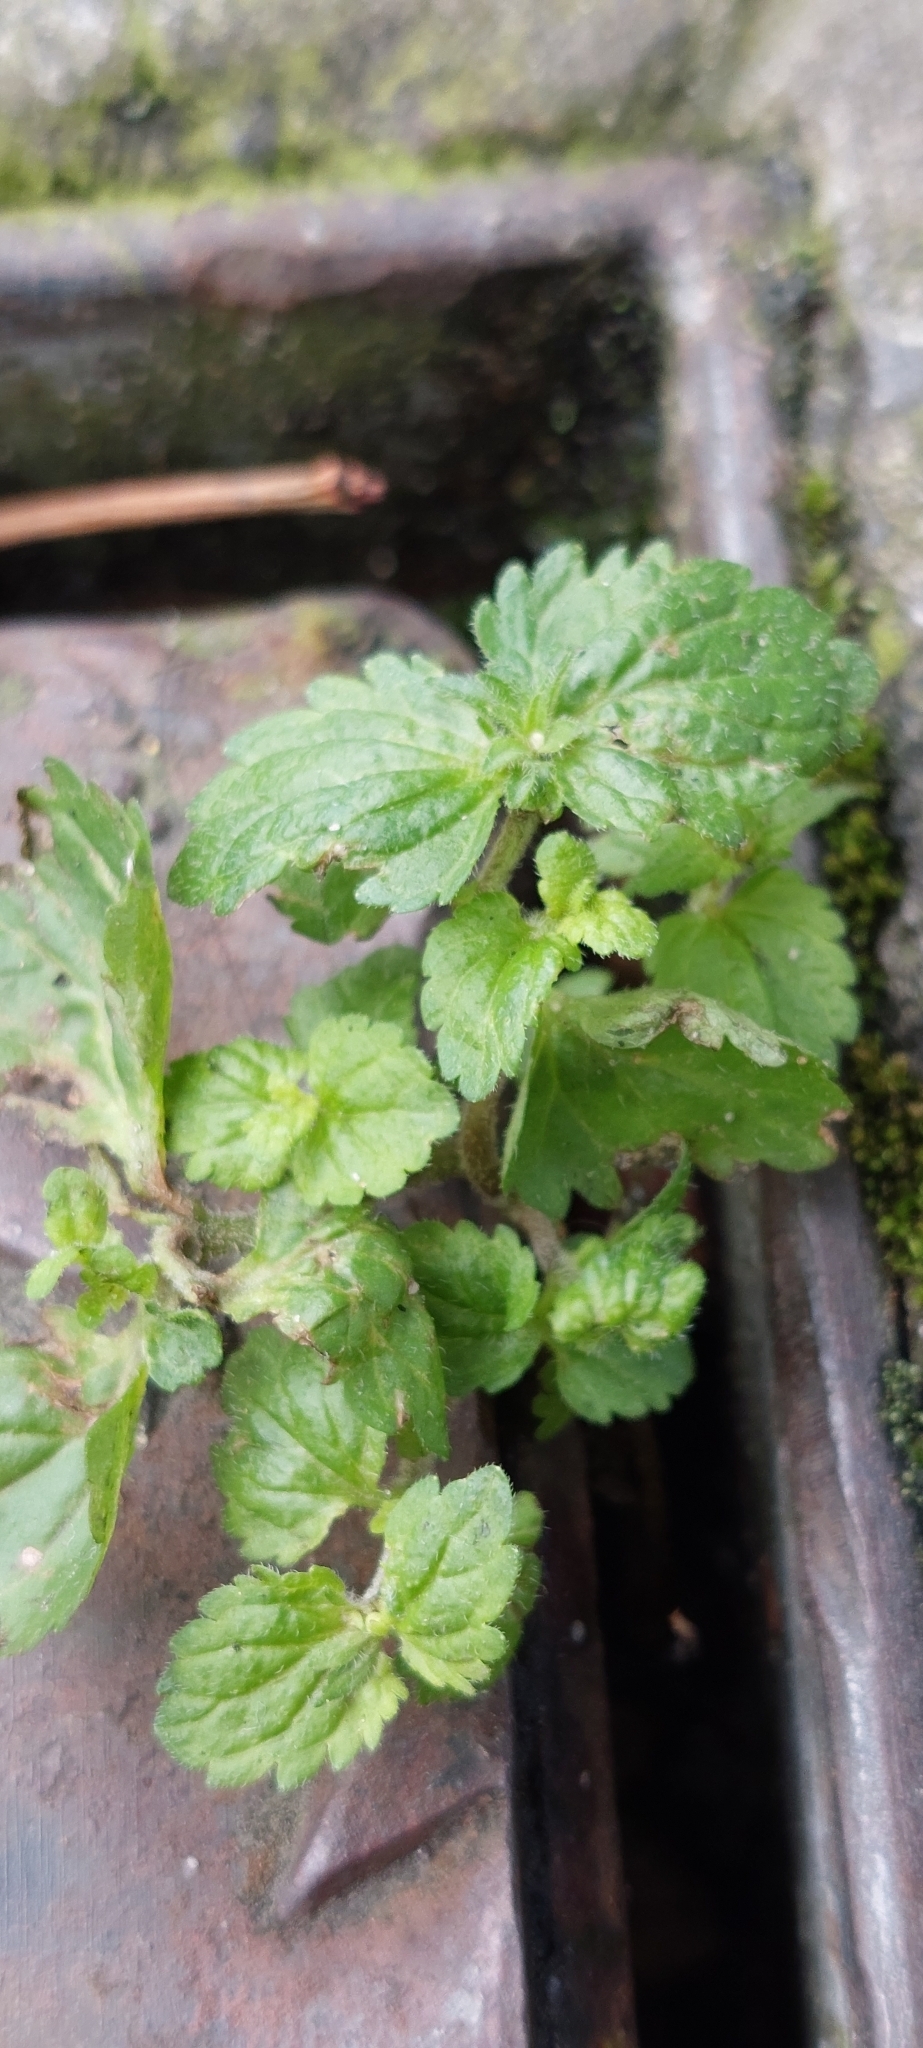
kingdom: Plantae
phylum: Tracheophyta
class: Magnoliopsida
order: Lamiales
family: Plantaginaceae
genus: Veronica
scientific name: Veronica javanica
